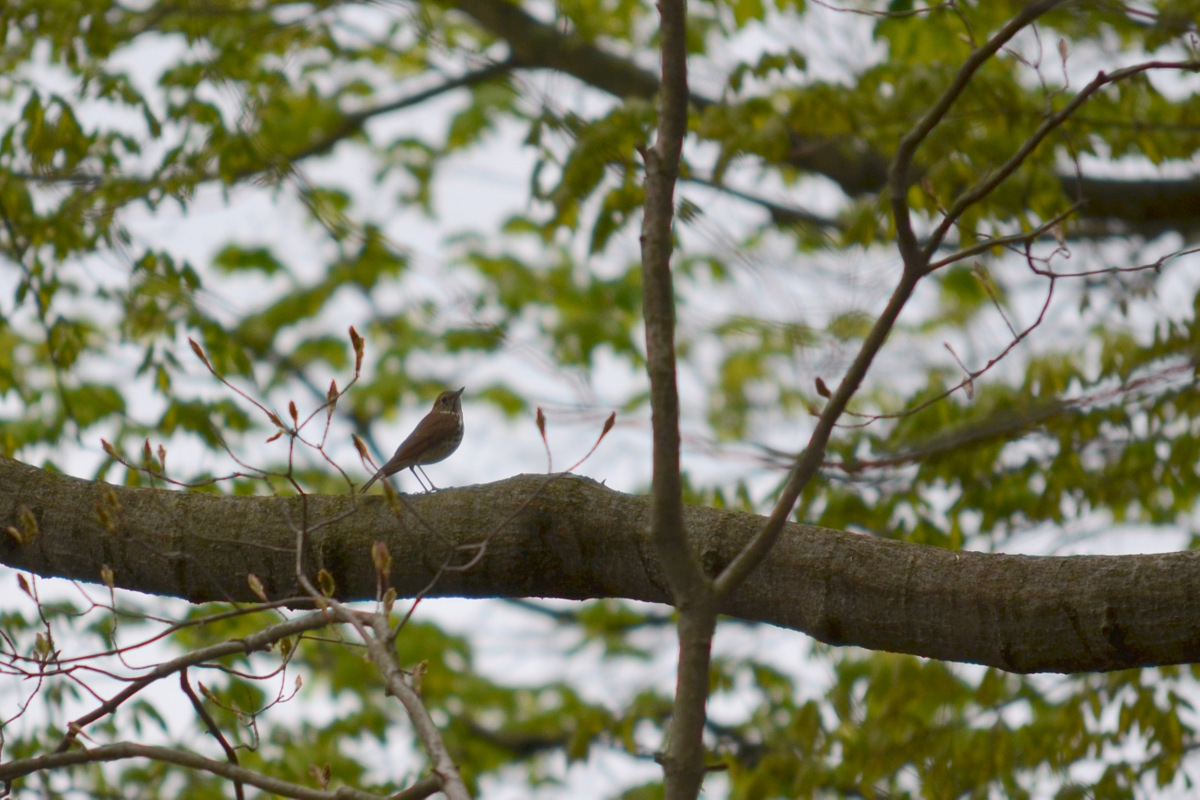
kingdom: Animalia
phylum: Chordata
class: Aves
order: Passeriformes
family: Turdidae
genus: Hylocichla
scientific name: Hylocichla mustelina
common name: Wood thrush
